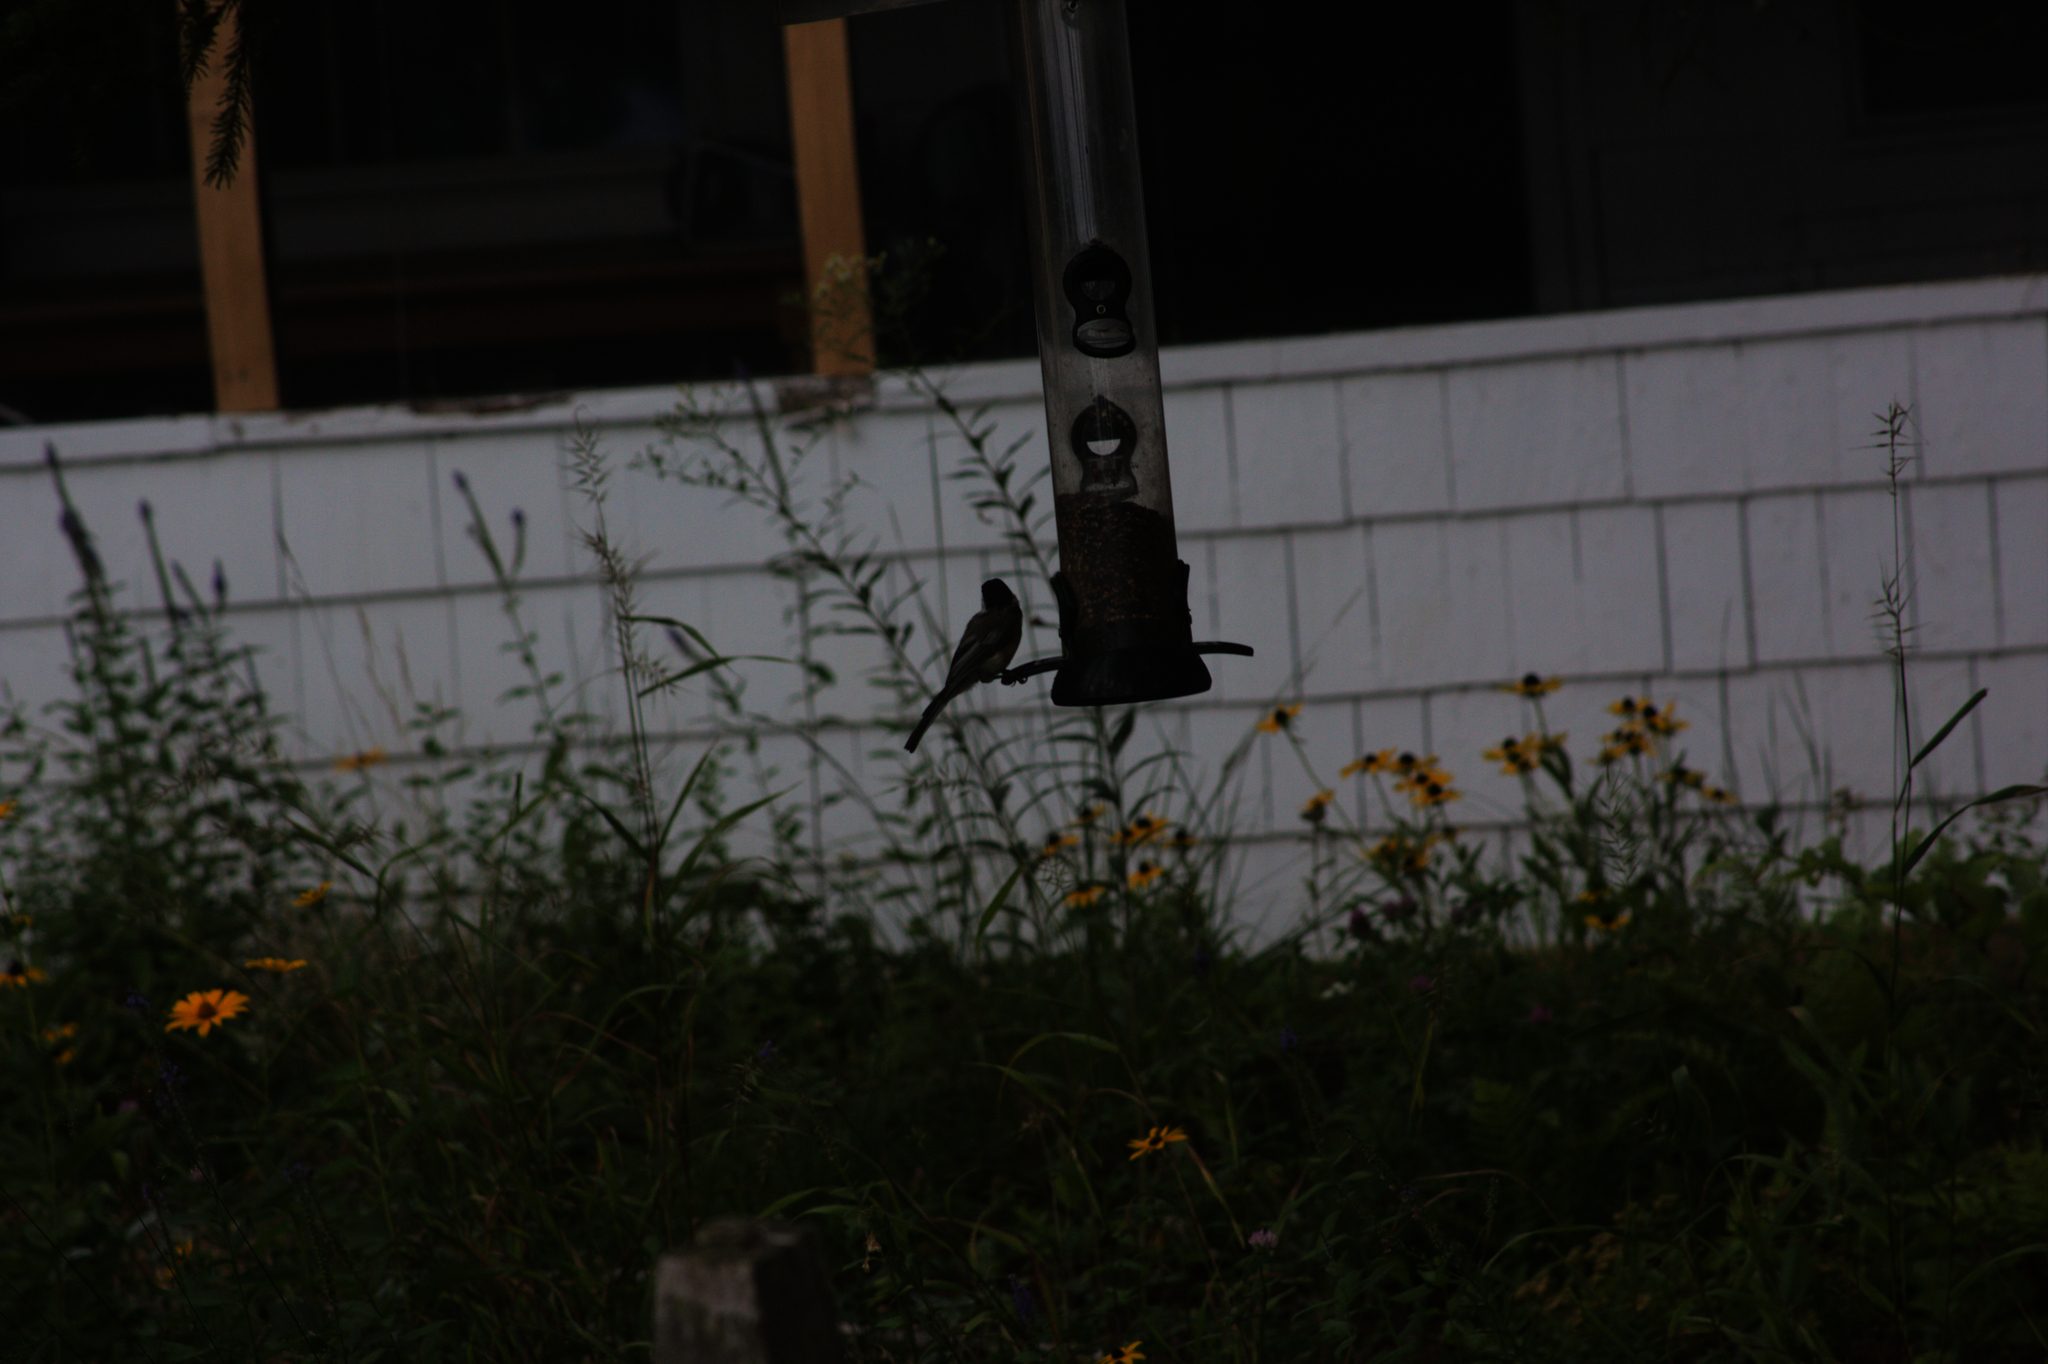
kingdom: Animalia
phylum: Chordata
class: Aves
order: Passeriformes
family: Paridae
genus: Poecile
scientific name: Poecile atricapillus
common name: Black-capped chickadee
